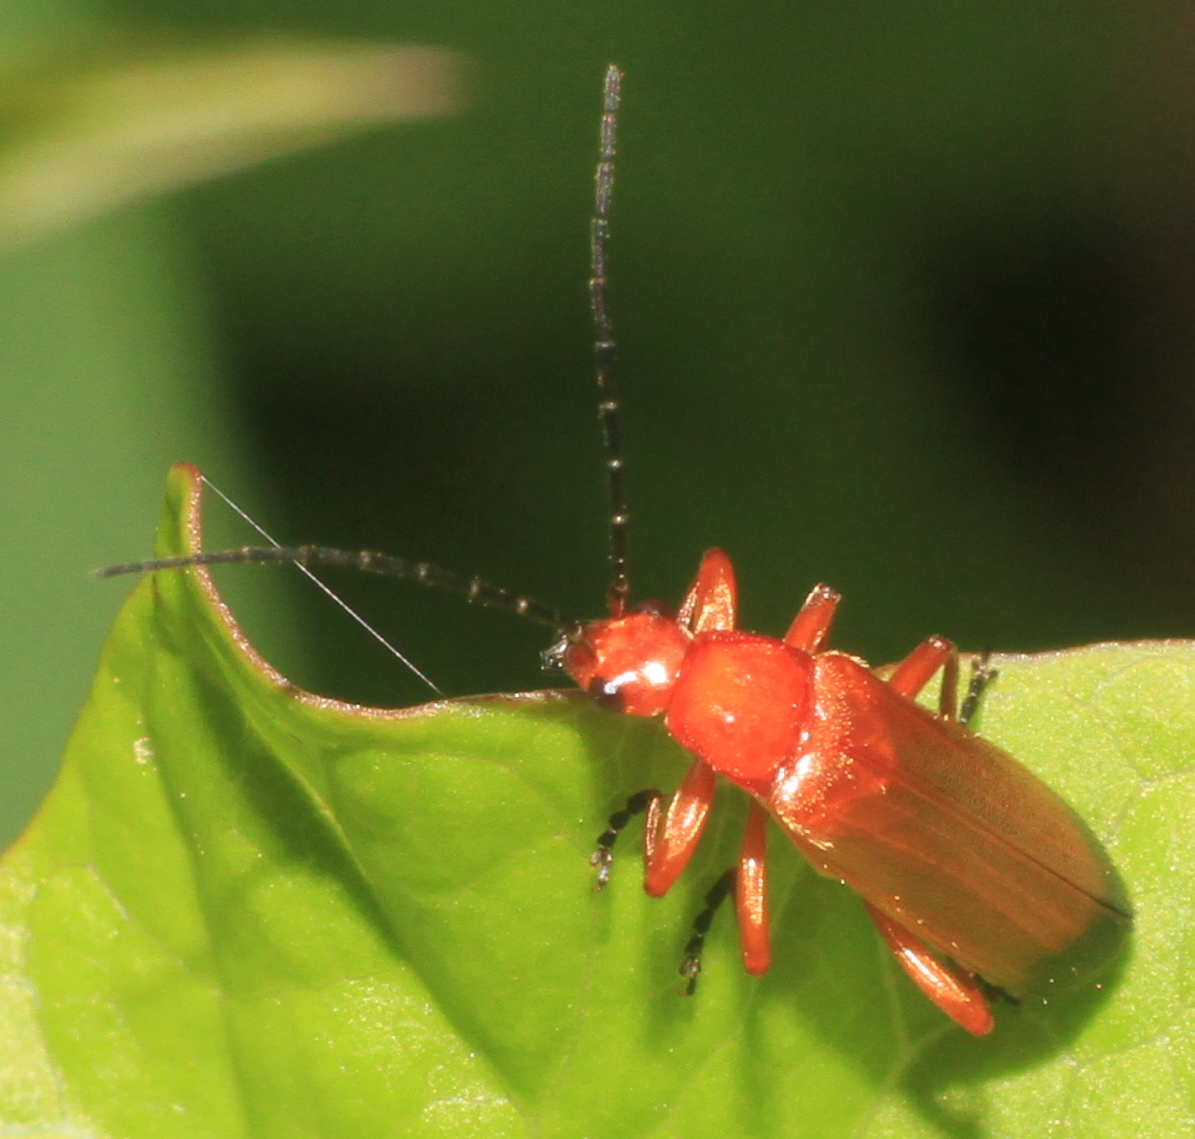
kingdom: Animalia
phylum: Arthropoda
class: Insecta
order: Coleoptera
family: Cantharidae
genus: Rhagonycha
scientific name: Rhagonycha fulva
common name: Common red soldier beetle
